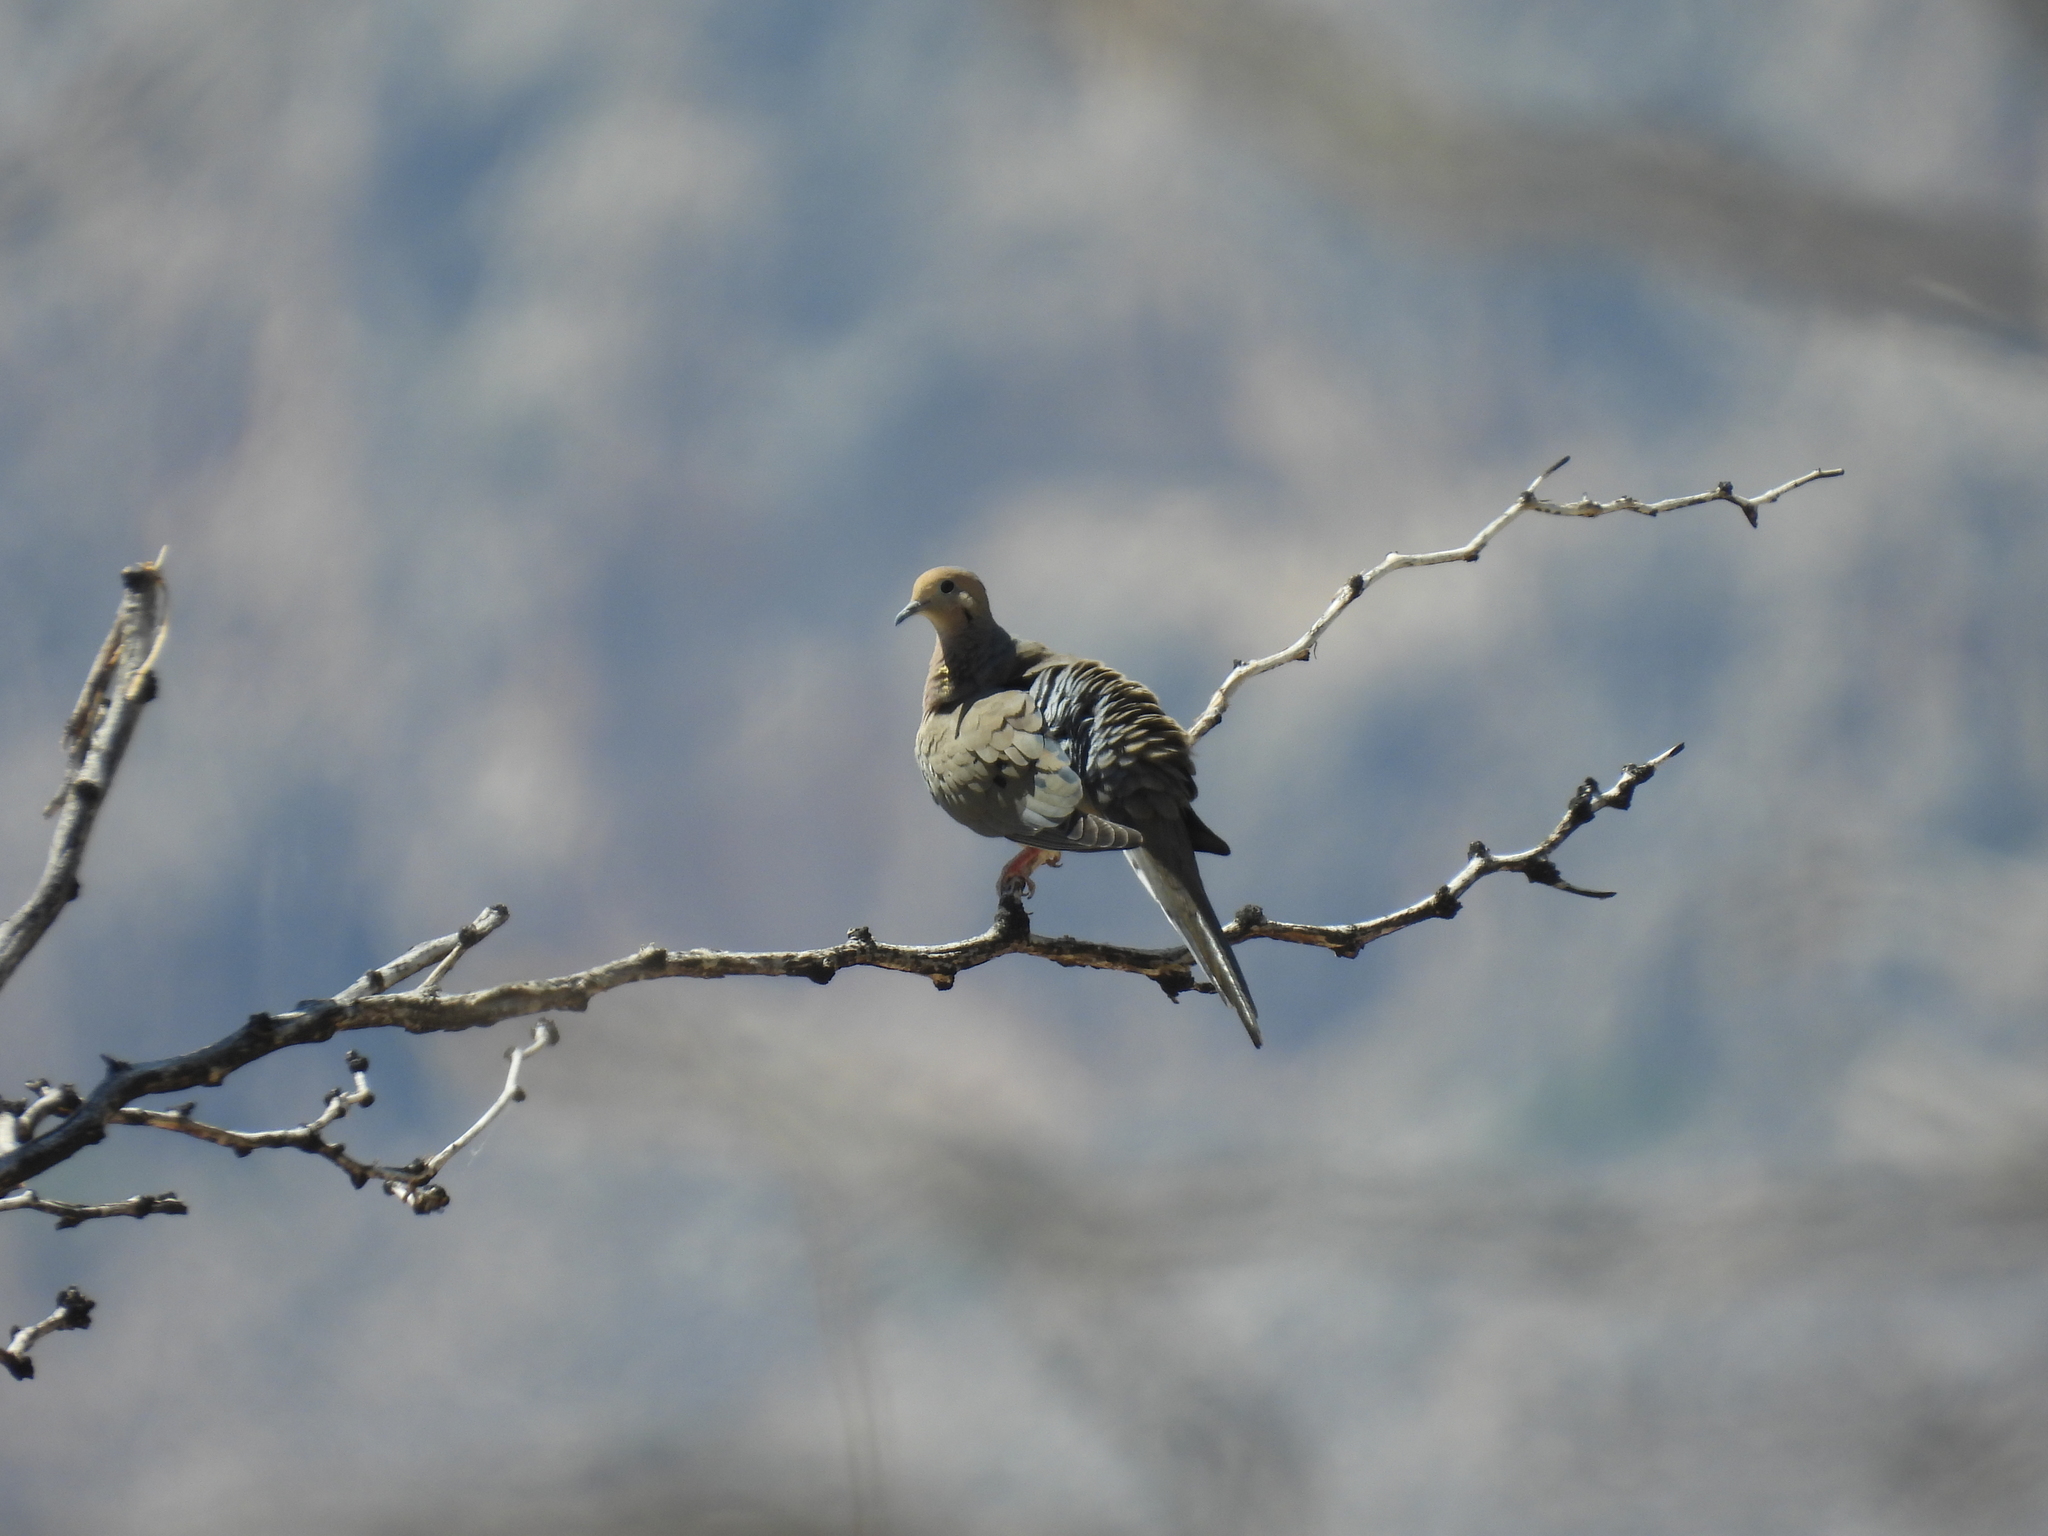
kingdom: Animalia
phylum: Chordata
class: Aves
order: Columbiformes
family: Columbidae
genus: Zenaida
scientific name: Zenaida macroura
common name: Mourning dove
